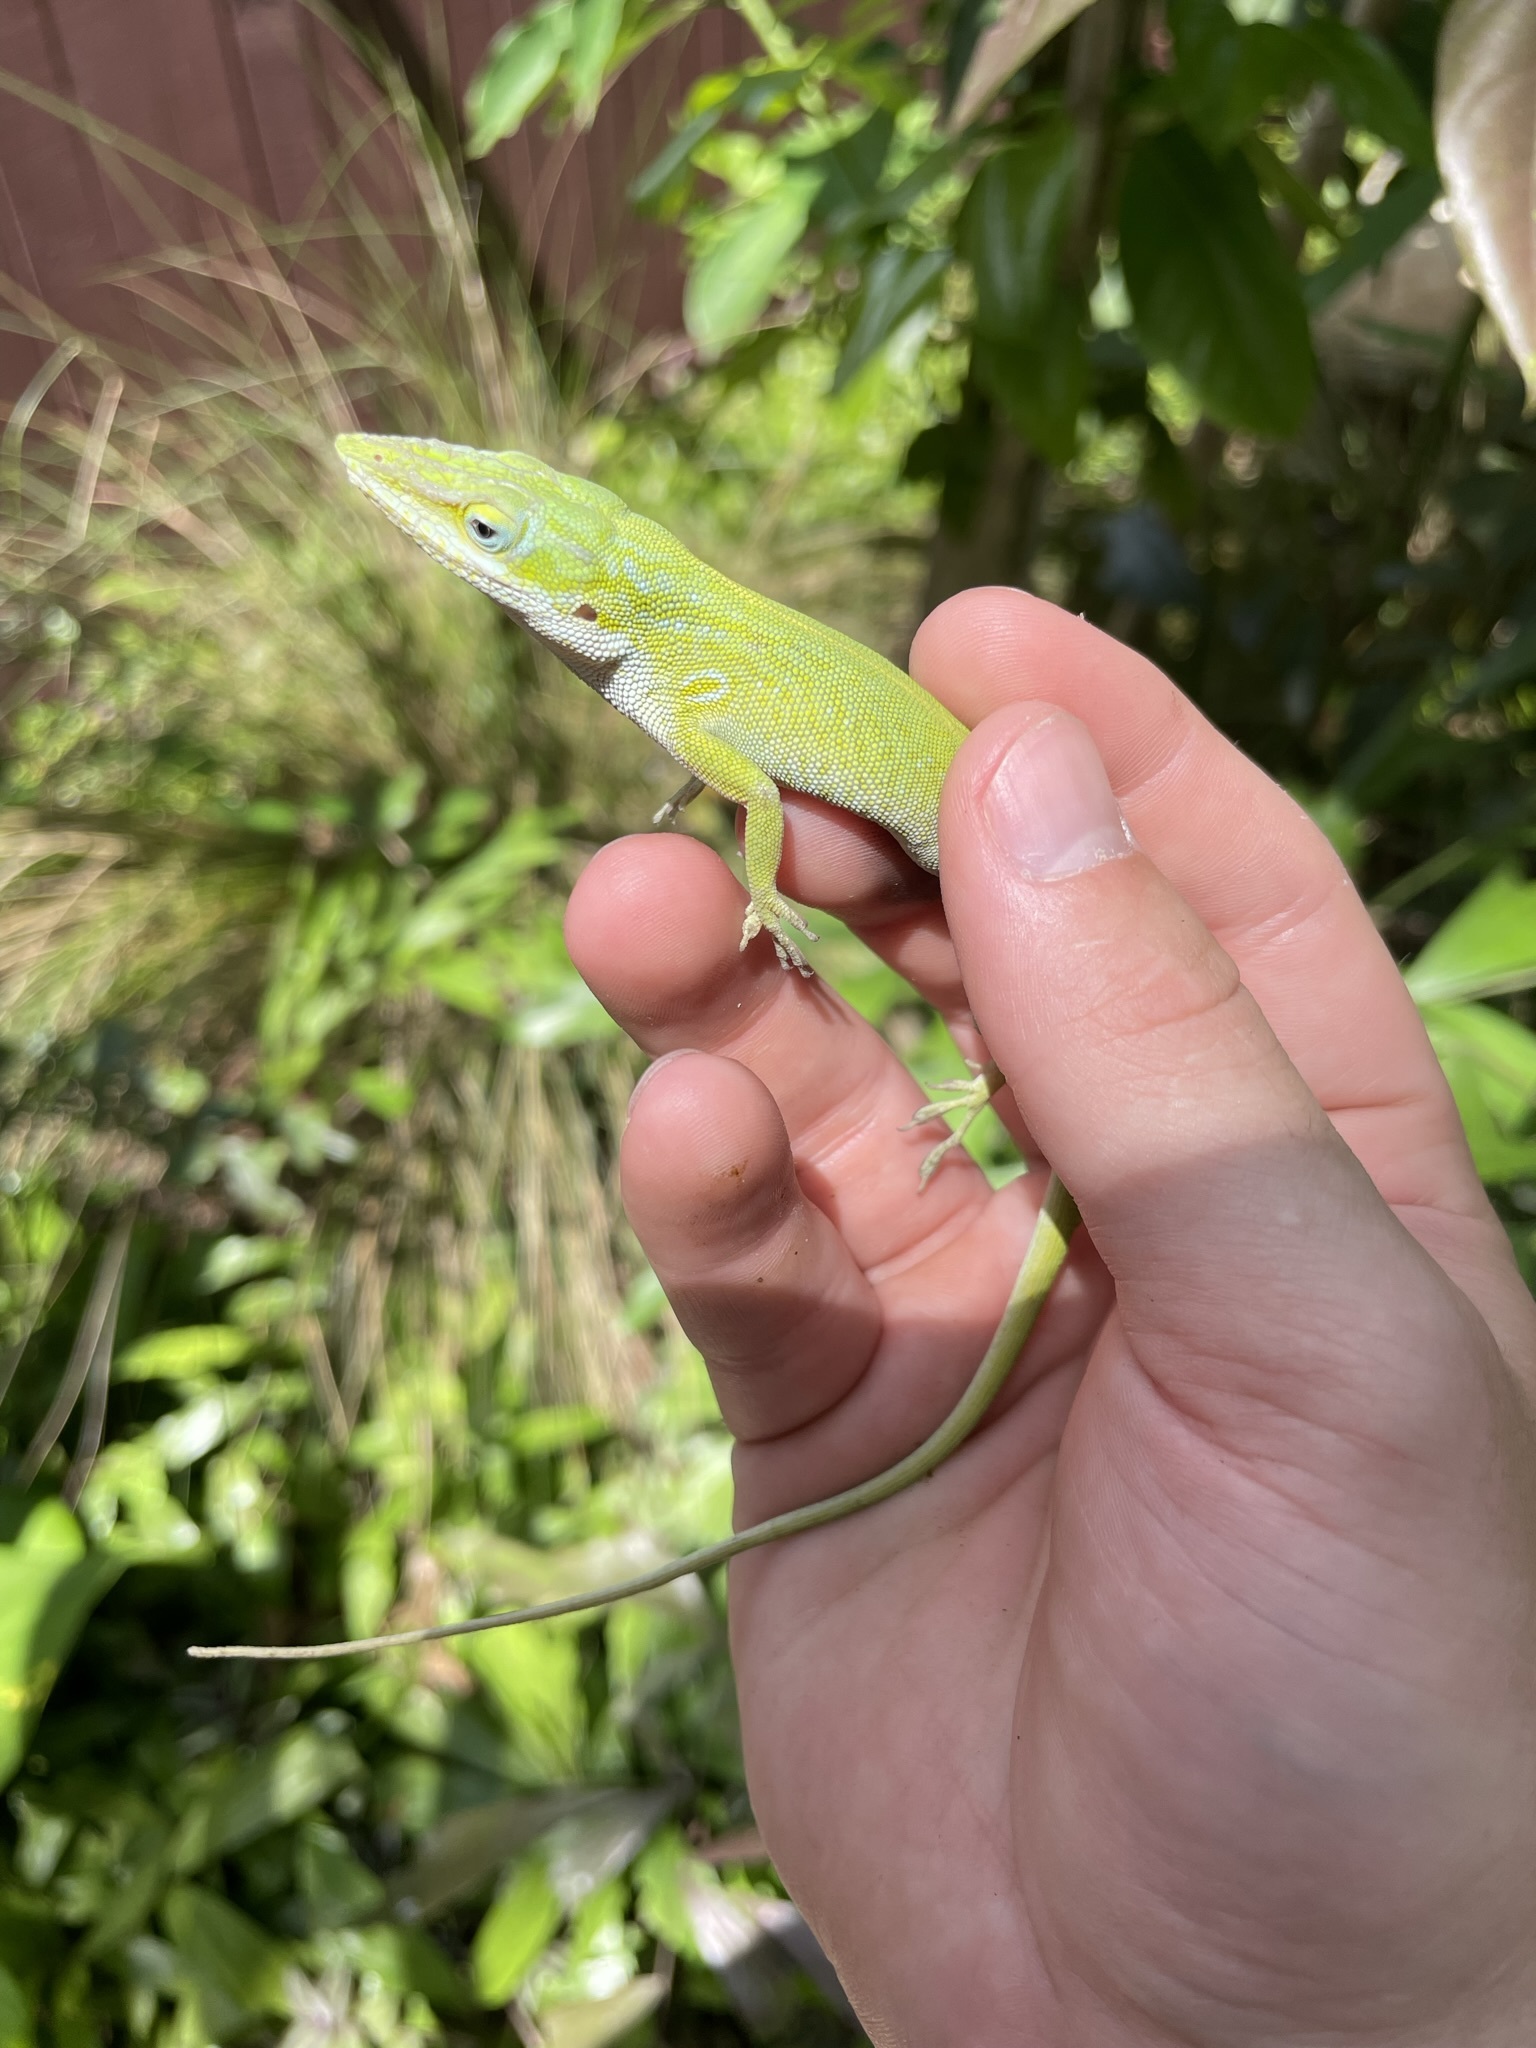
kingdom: Animalia
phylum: Chordata
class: Squamata
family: Dactyloidae
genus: Anolis
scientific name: Anolis carolinensis
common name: Green anole
